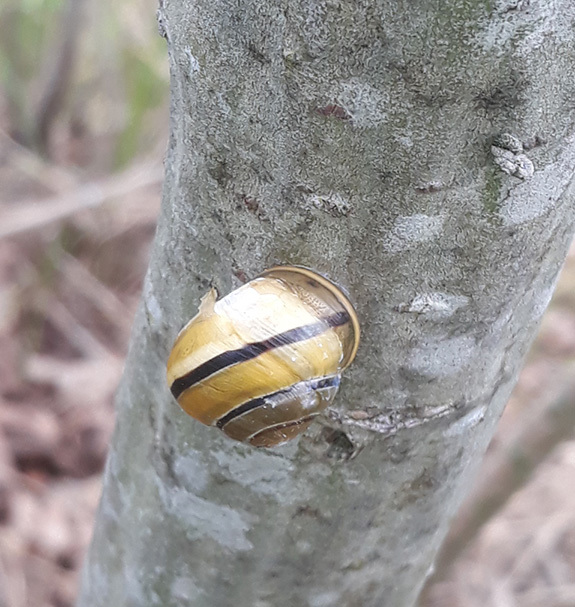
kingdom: Animalia
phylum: Mollusca
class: Gastropoda
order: Stylommatophora
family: Helicidae
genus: Cepaea
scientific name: Cepaea
